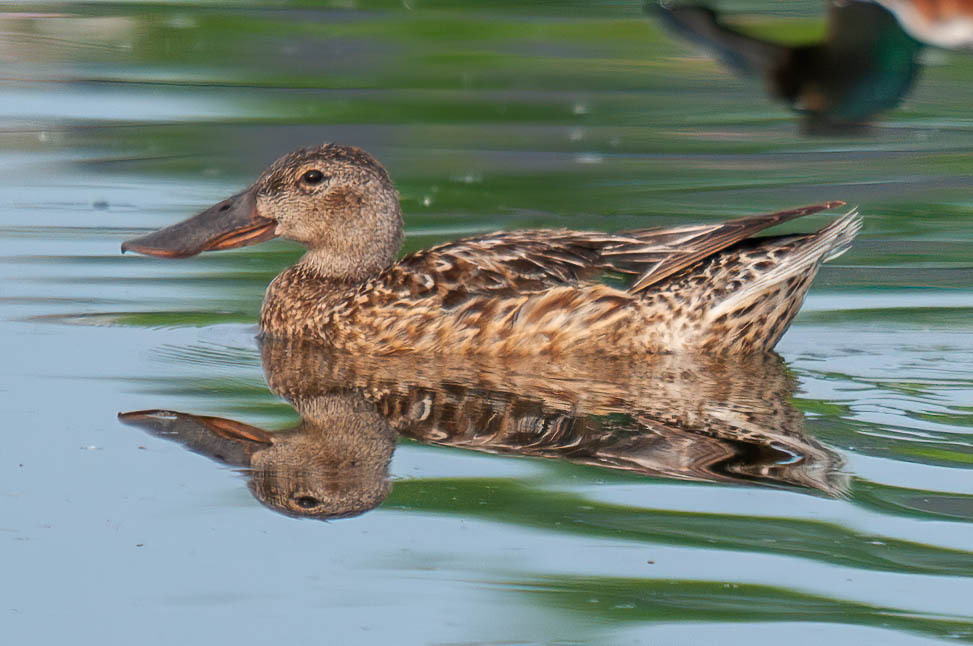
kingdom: Animalia
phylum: Chordata
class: Aves
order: Anseriformes
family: Anatidae
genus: Spatula
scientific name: Spatula clypeata
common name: Northern shoveler
